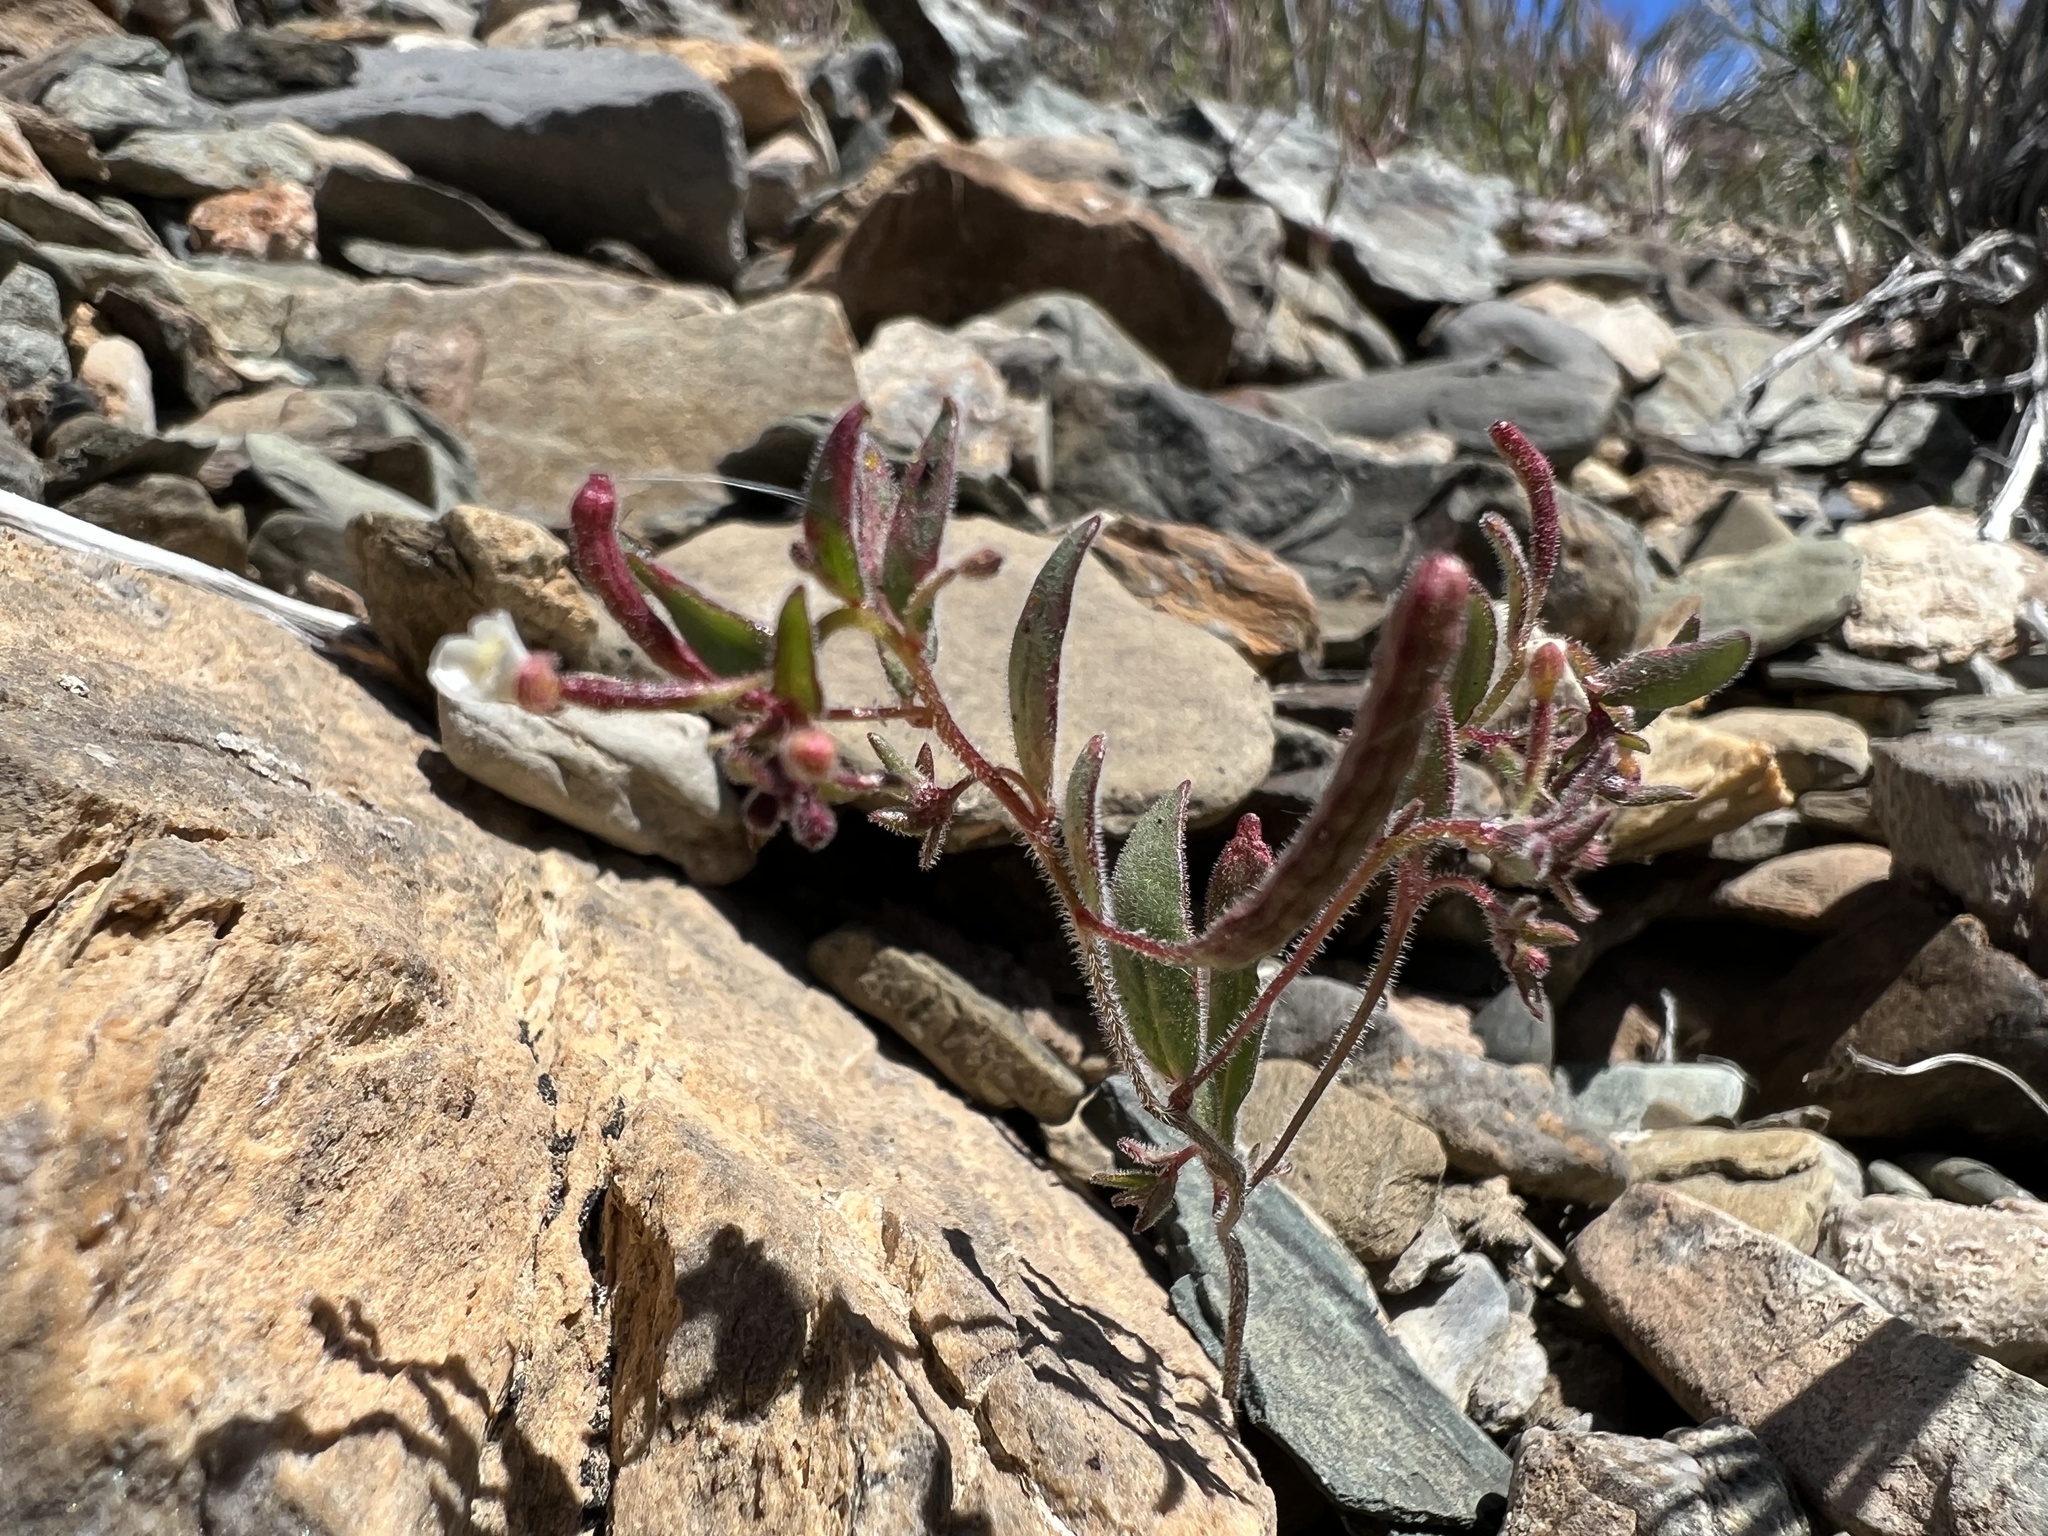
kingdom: Plantae
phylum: Tracheophyta
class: Magnoliopsida
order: Myrtales
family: Onagraceae
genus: Chylismiella
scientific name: Chylismiella pterosperma
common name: Wingfruit suncup
